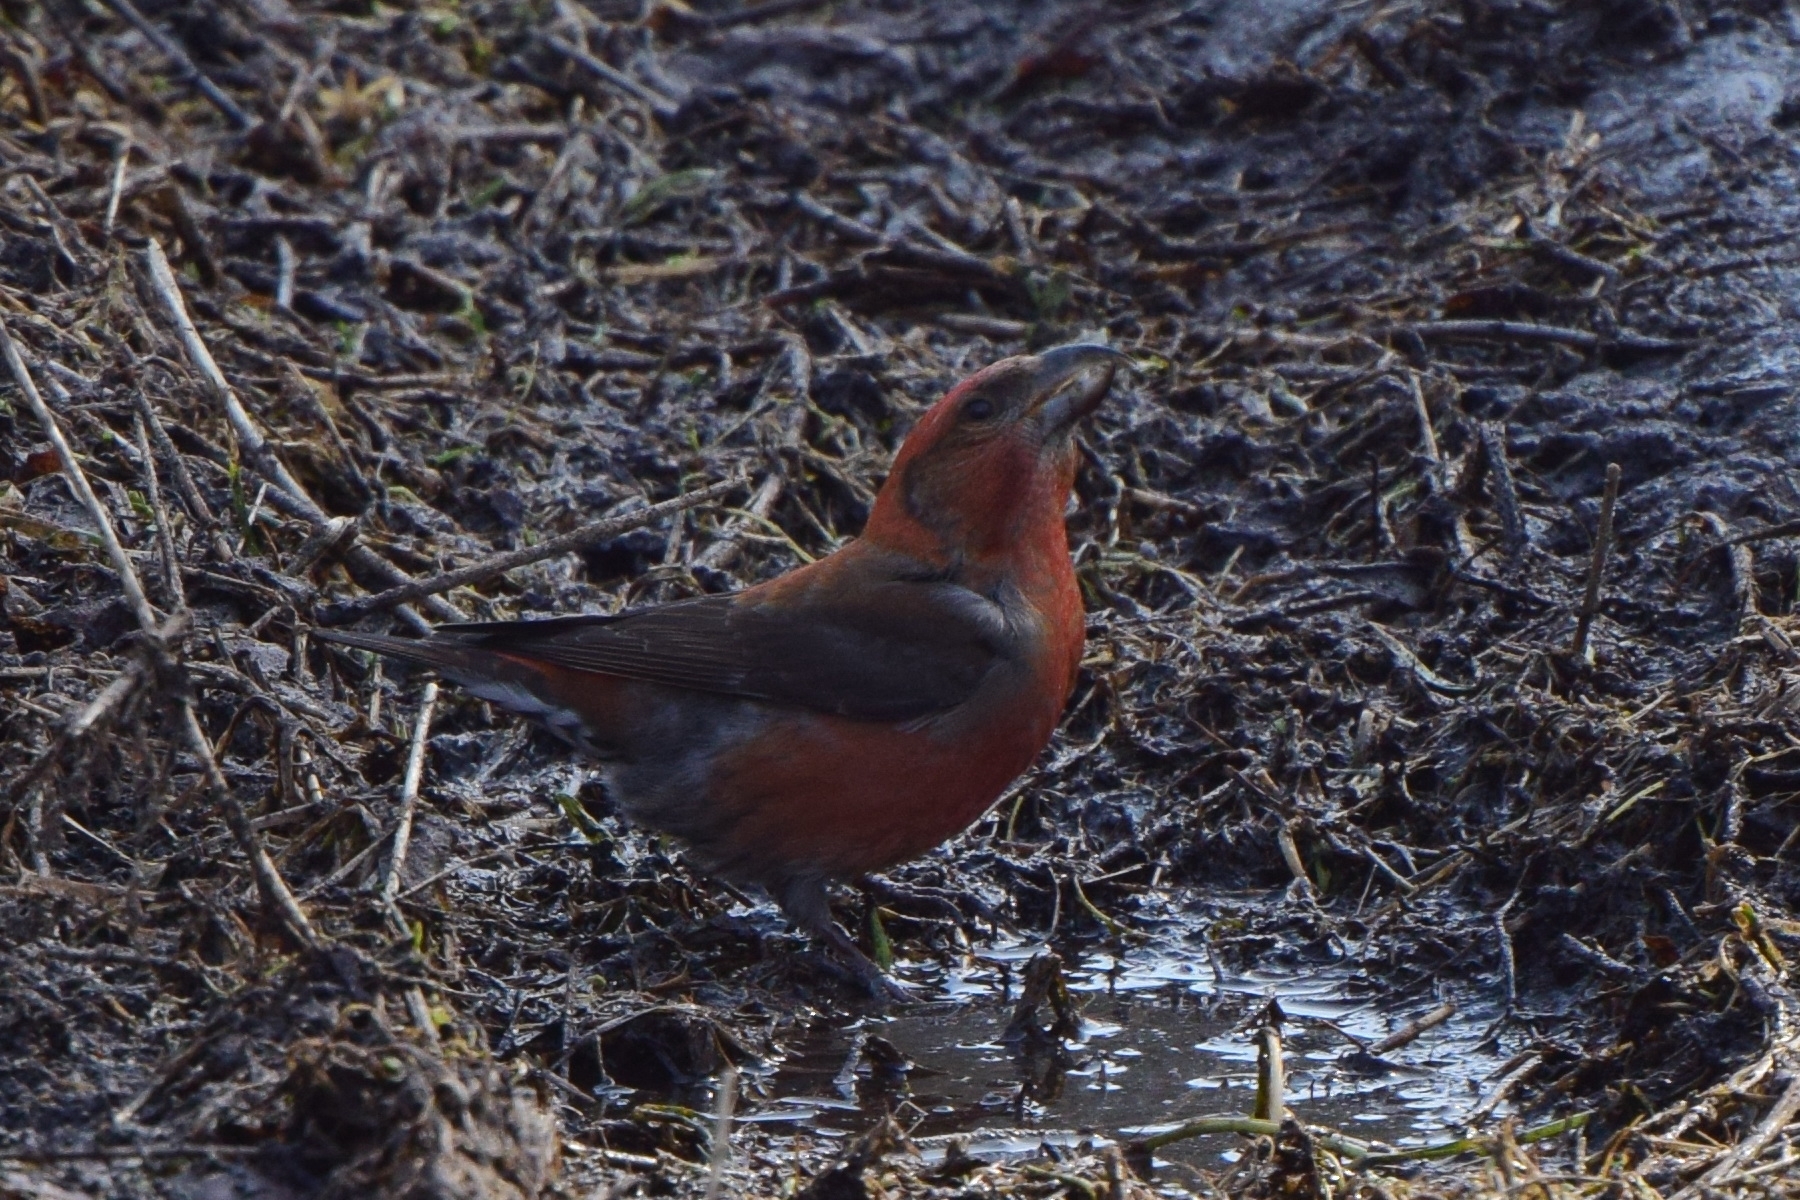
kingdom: Animalia
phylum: Chordata
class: Aves
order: Passeriformes
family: Fringillidae
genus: Loxia
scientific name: Loxia curvirostra
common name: Red crossbill
